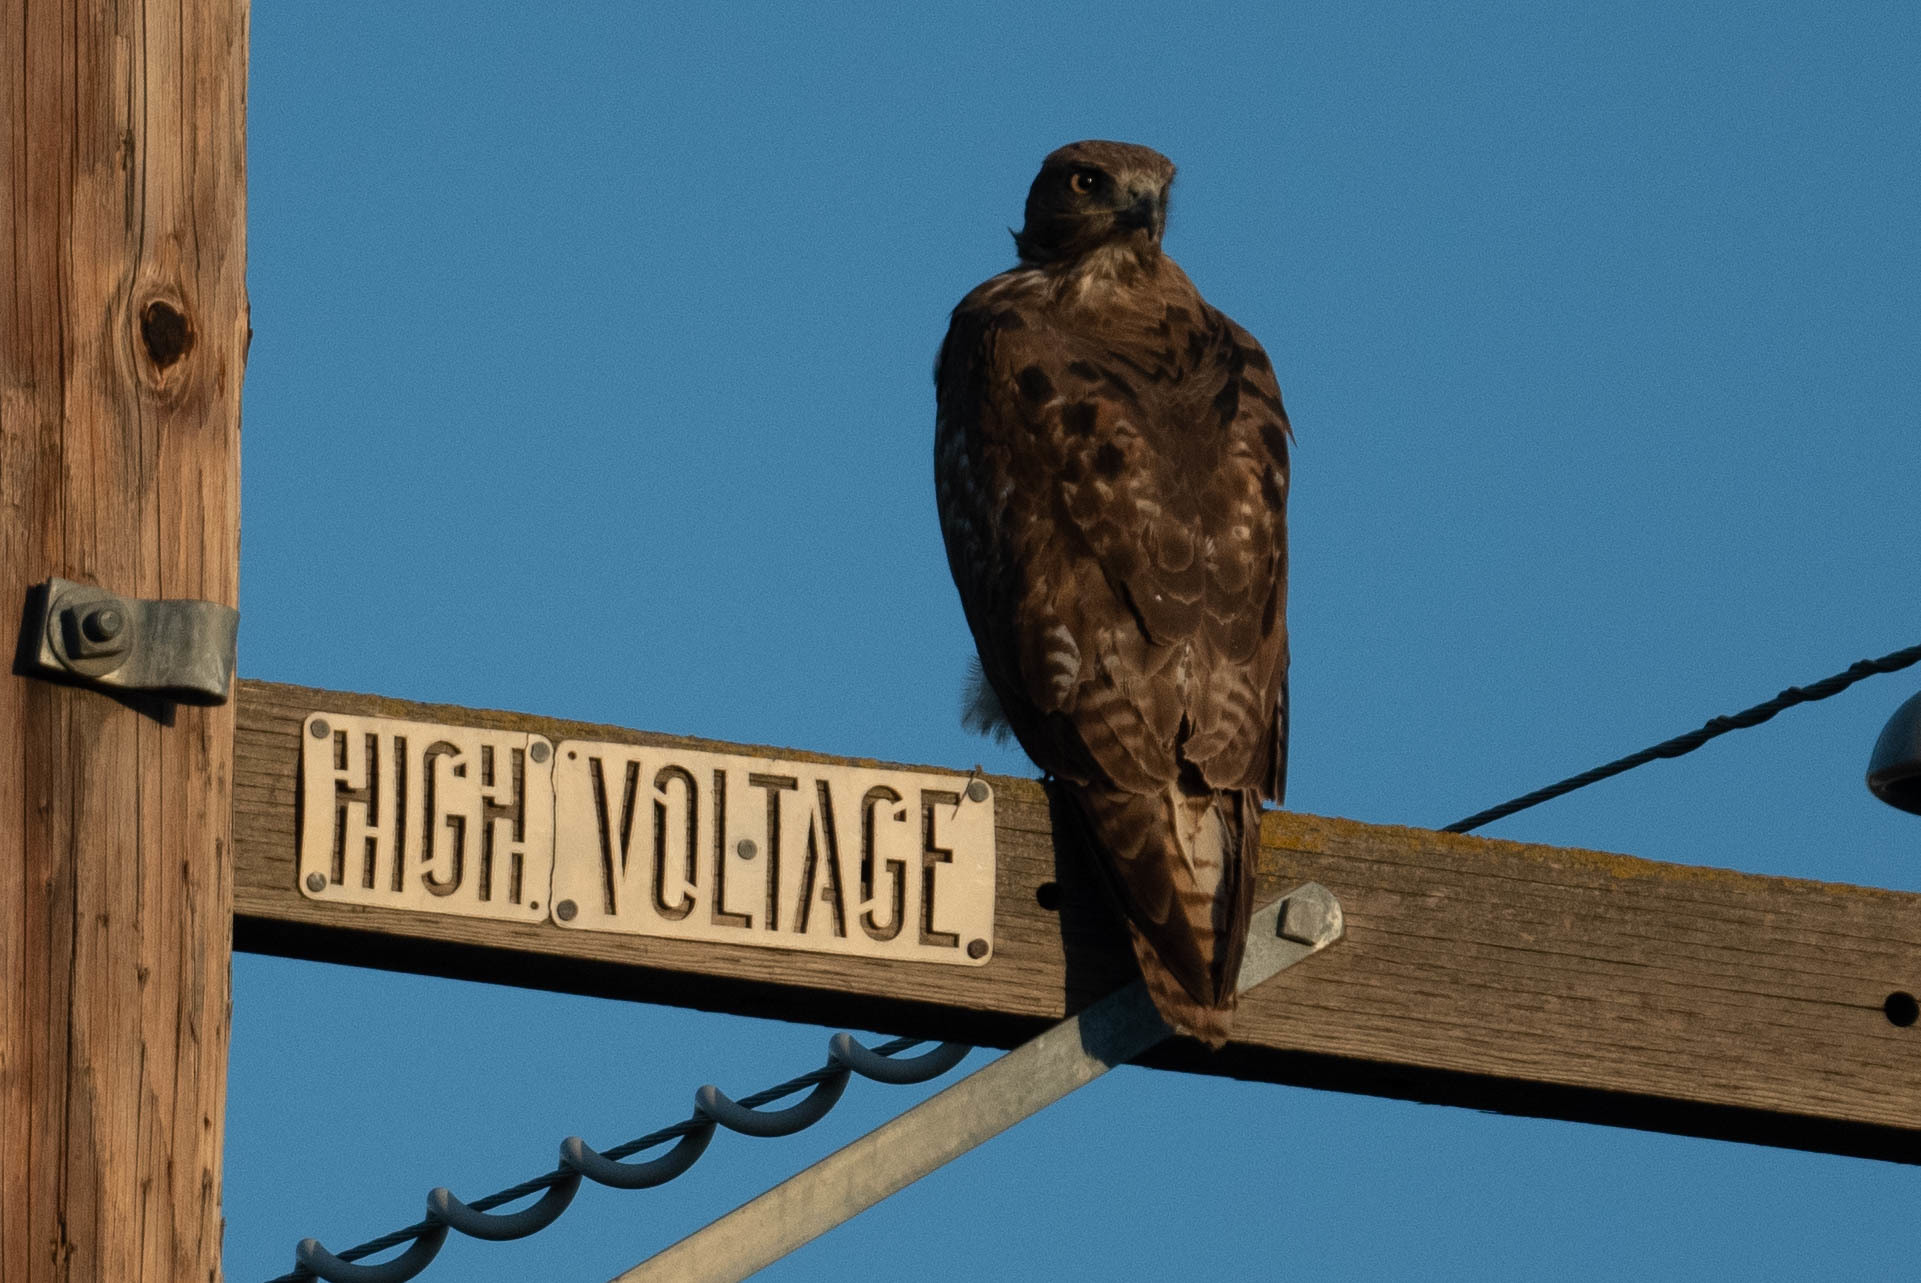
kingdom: Animalia
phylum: Chordata
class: Aves
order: Accipitriformes
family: Accipitridae
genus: Buteo
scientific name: Buteo jamaicensis
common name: Red-tailed hawk
